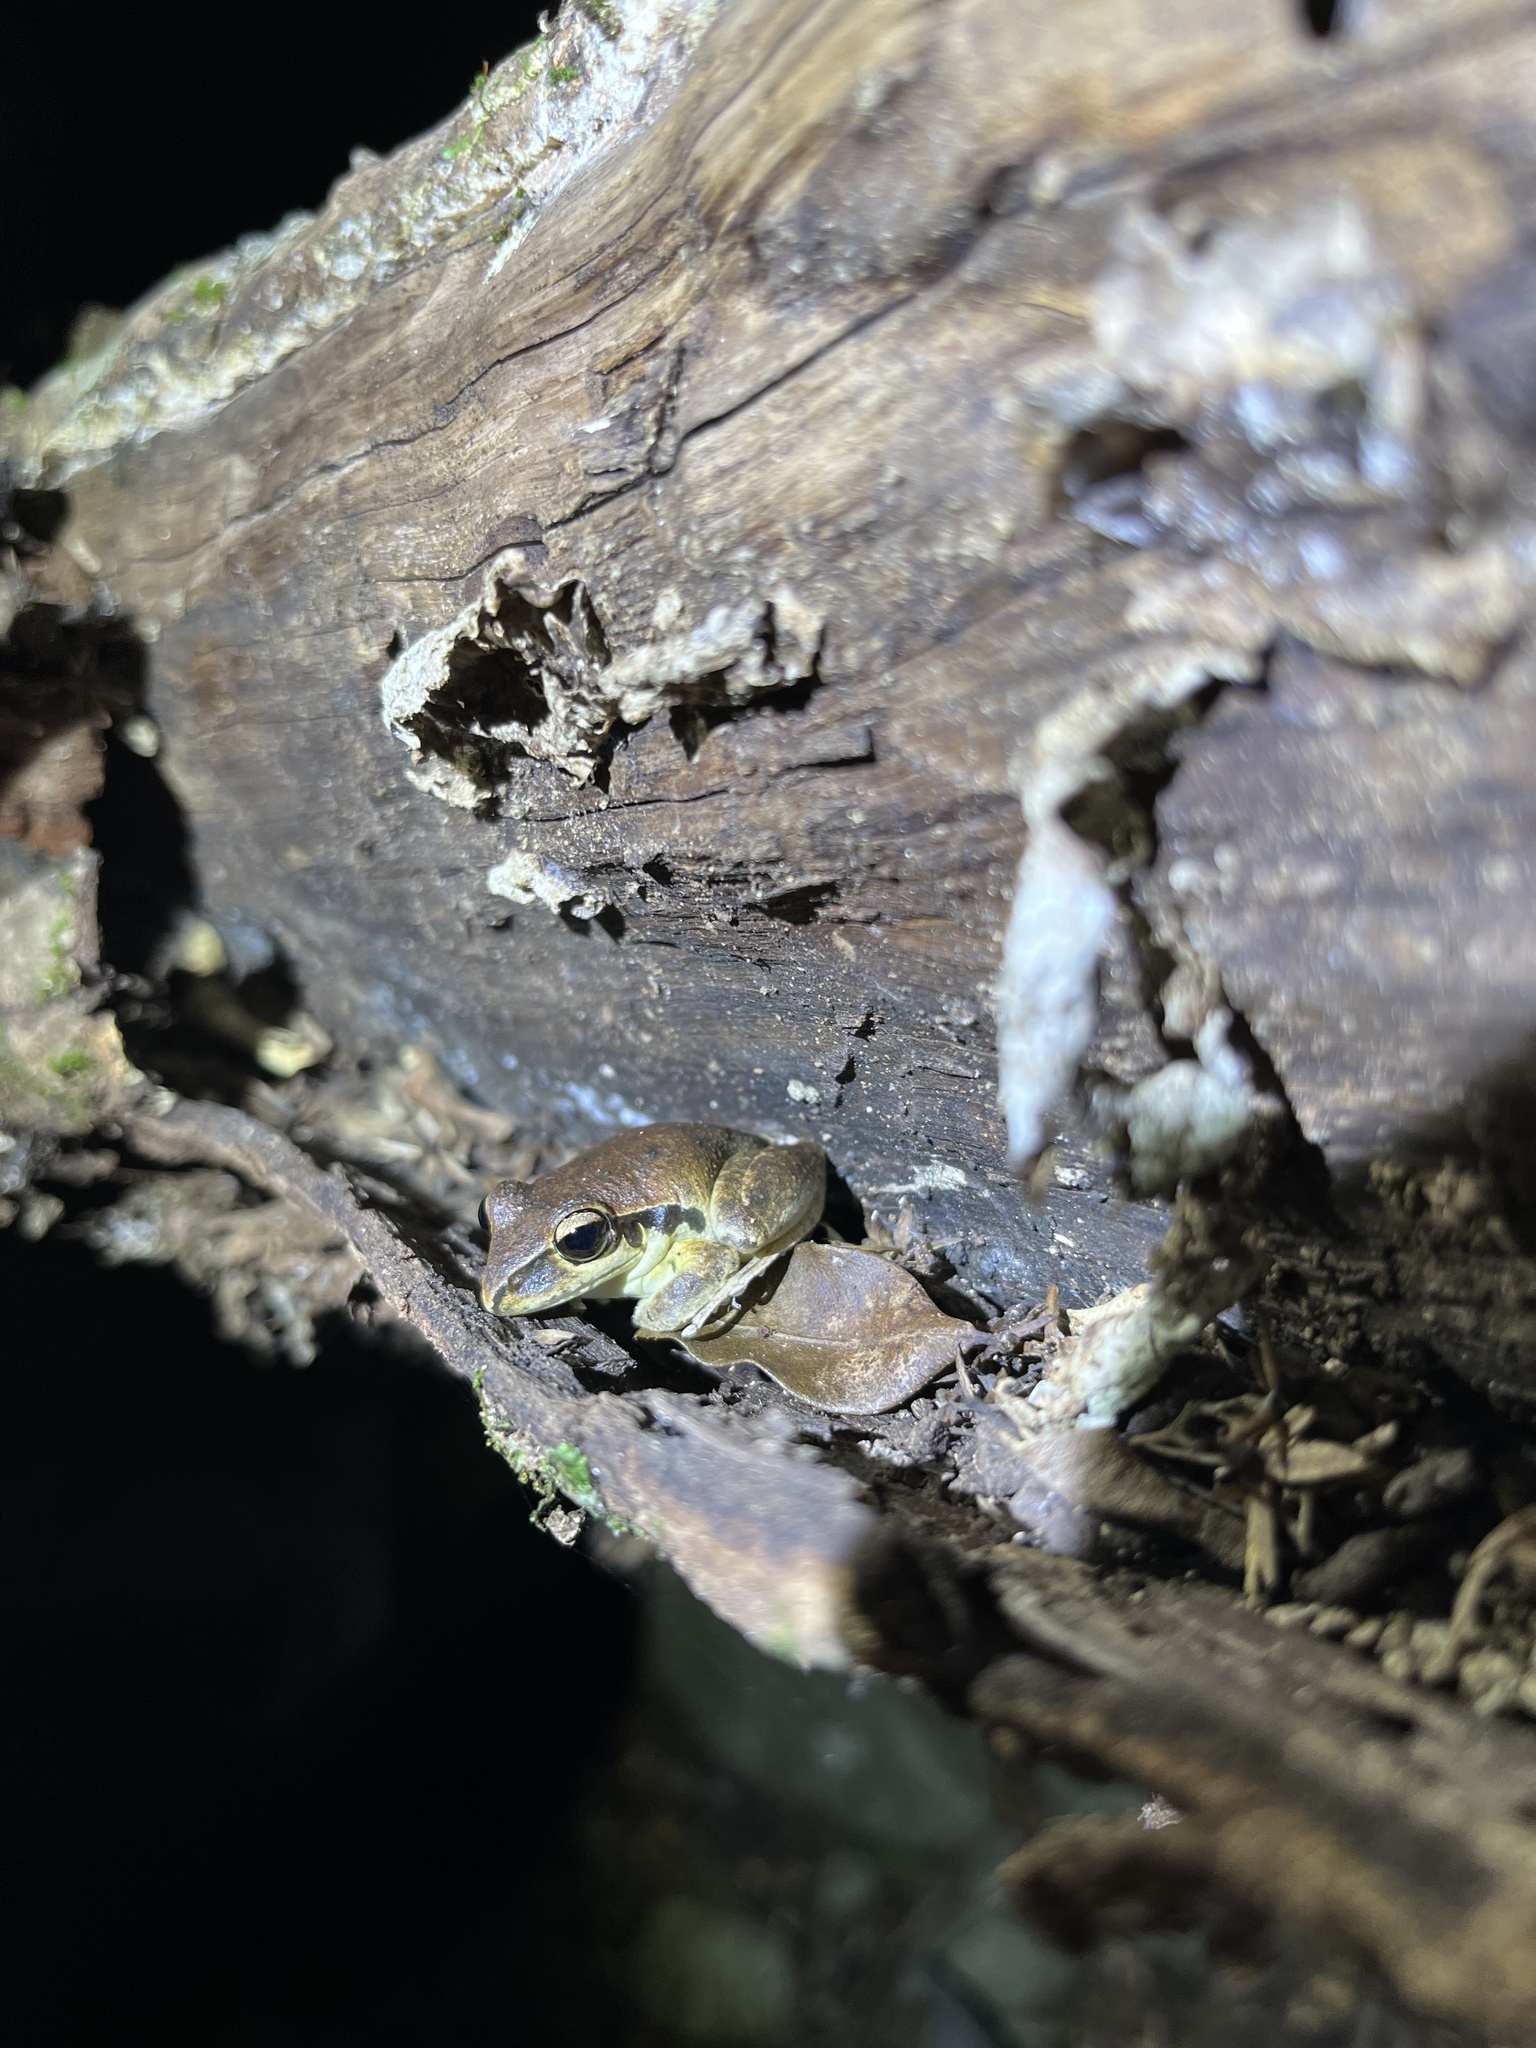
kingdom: Animalia
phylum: Chordata
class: Amphibia
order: Anura
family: Pelodryadidae
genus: Ranoidea
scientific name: Ranoidea wilcoxii
